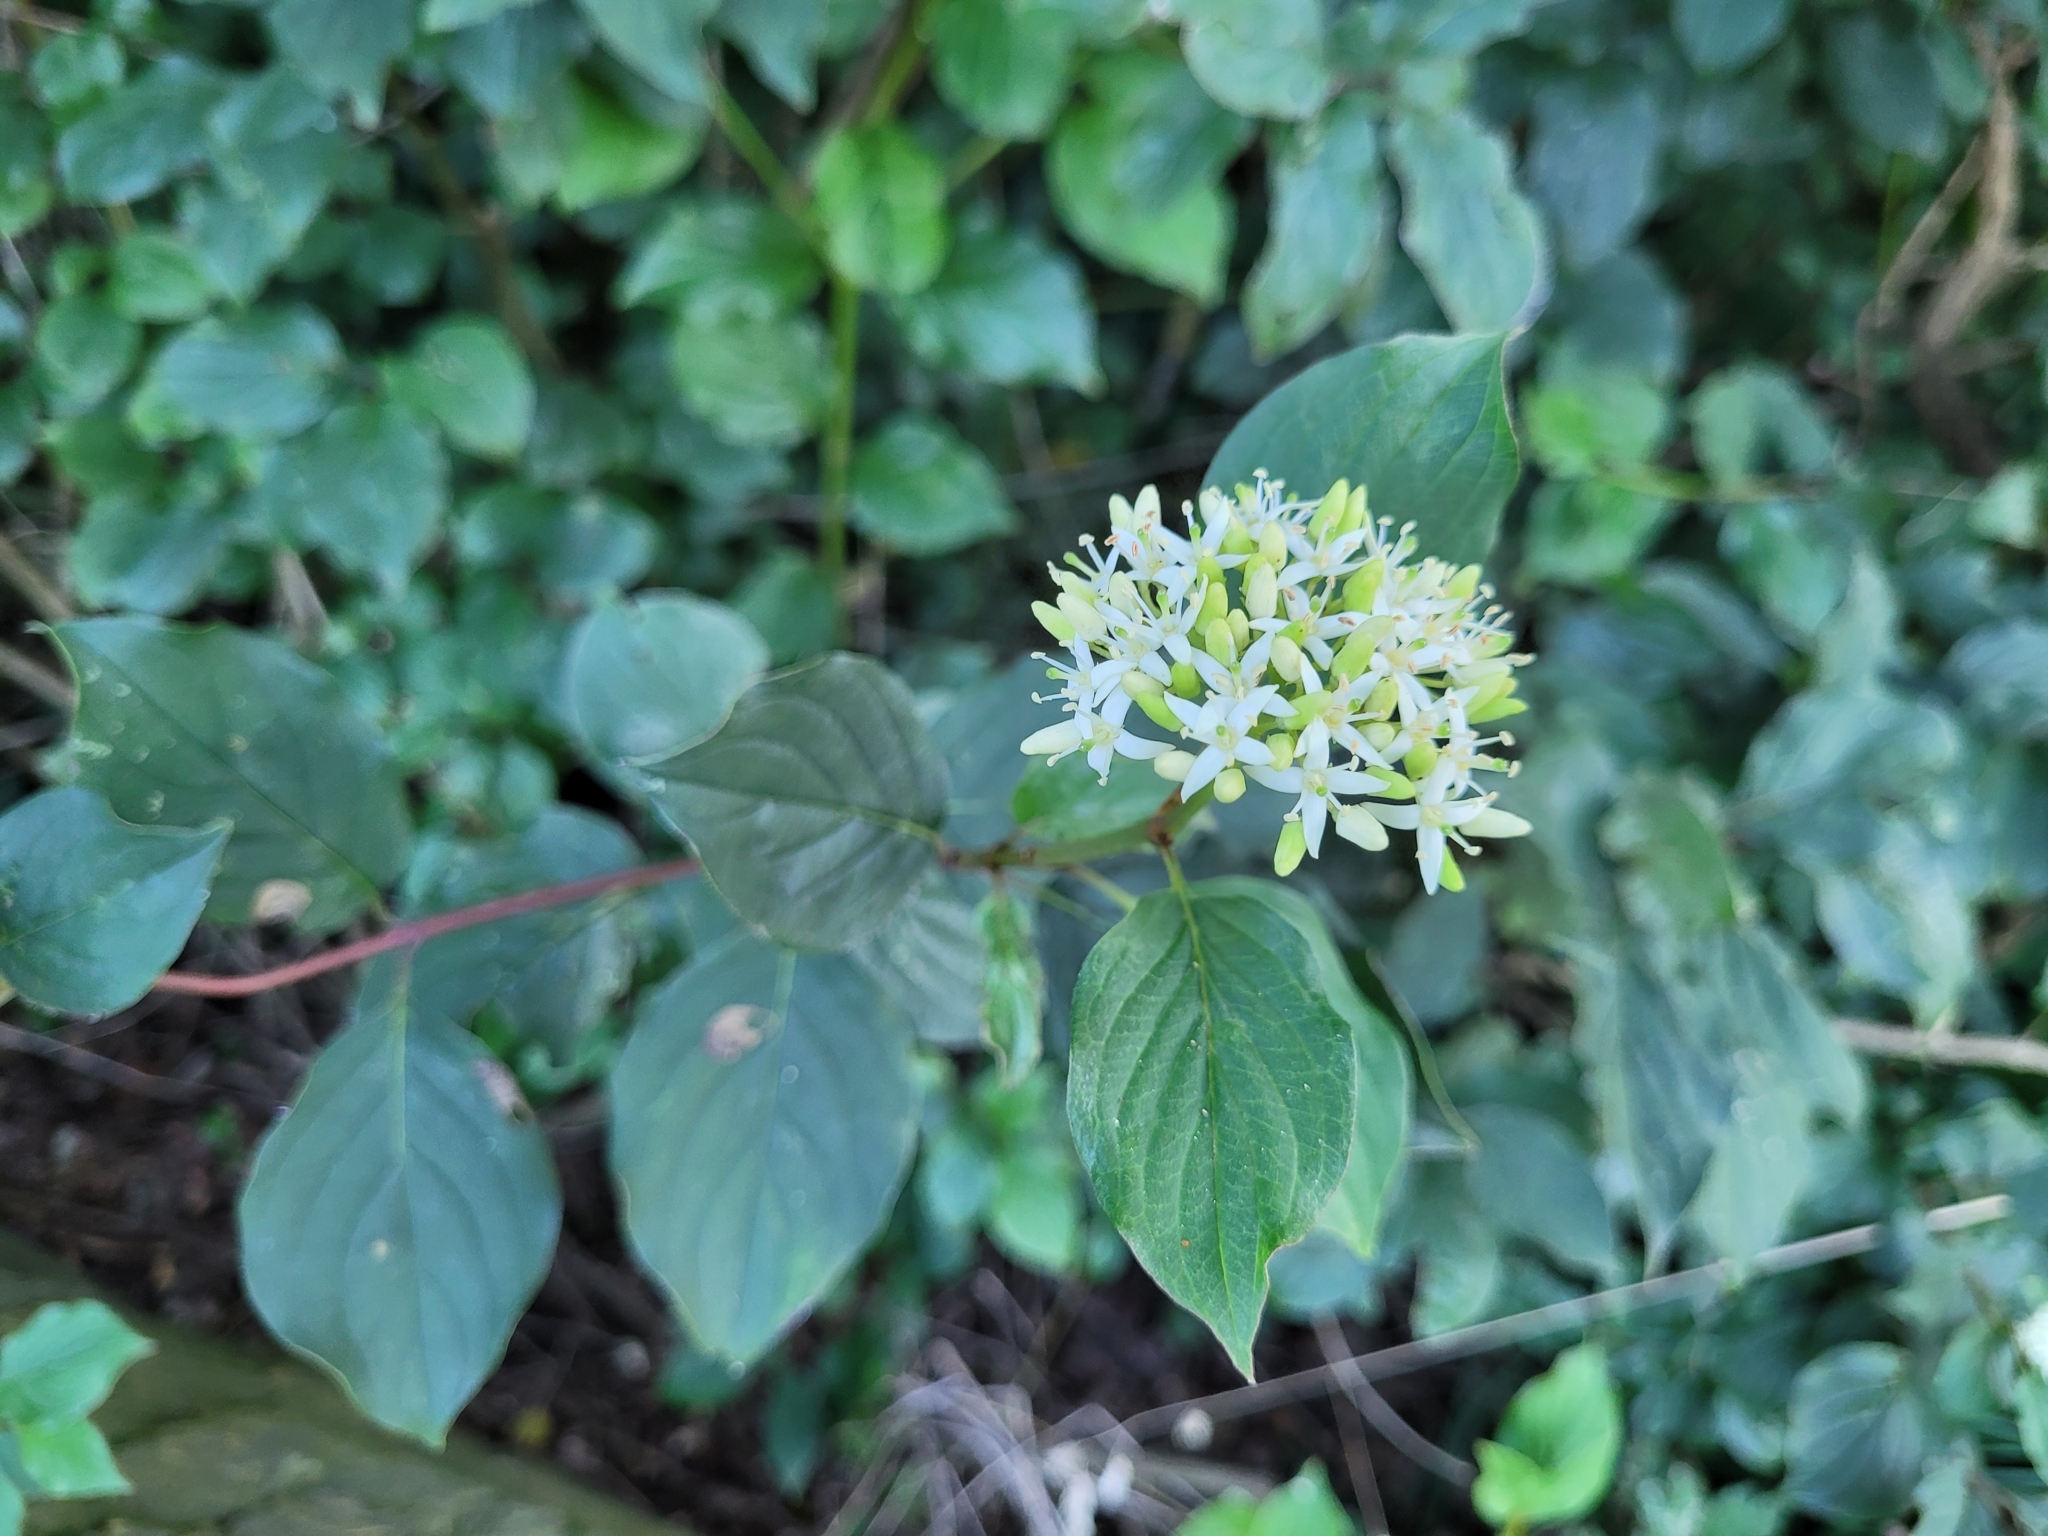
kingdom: Plantae
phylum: Tracheophyta
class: Magnoliopsida
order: Cornales
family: Cornaceae
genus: Cornus
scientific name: Cornus sanguinea
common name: Dogwood
